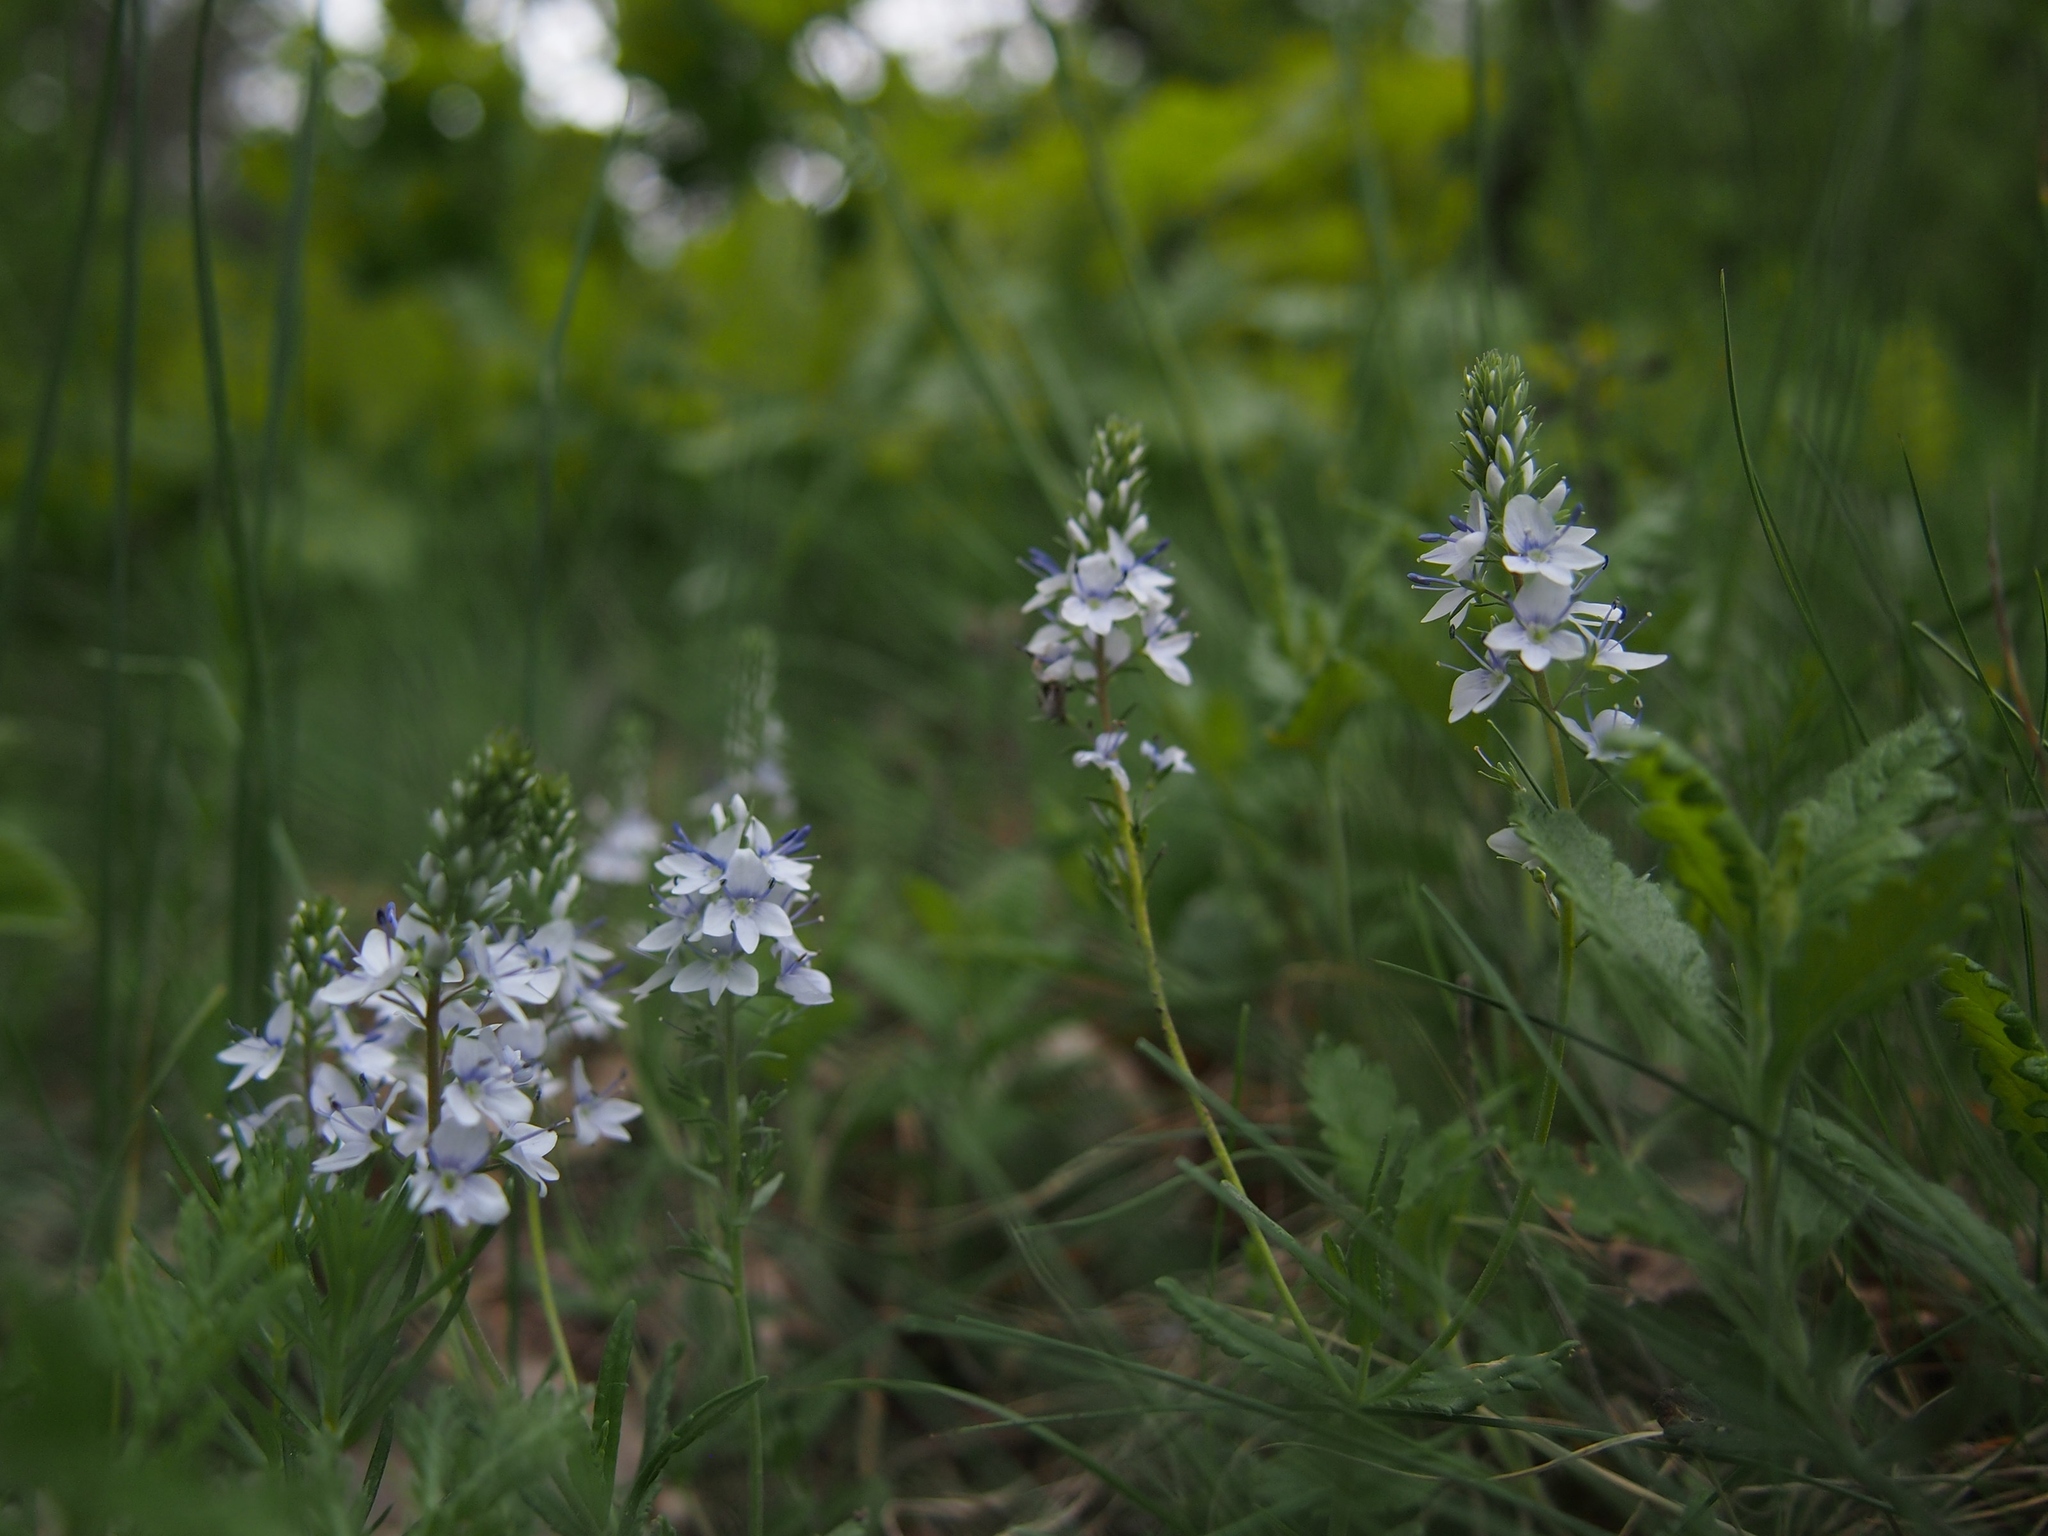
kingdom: Plantae
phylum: Tracheophyta
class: Magnoliopsida
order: Lamiales
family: Plantaginaceae
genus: Veronica
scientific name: Veronica austriaca
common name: Large speedwell
